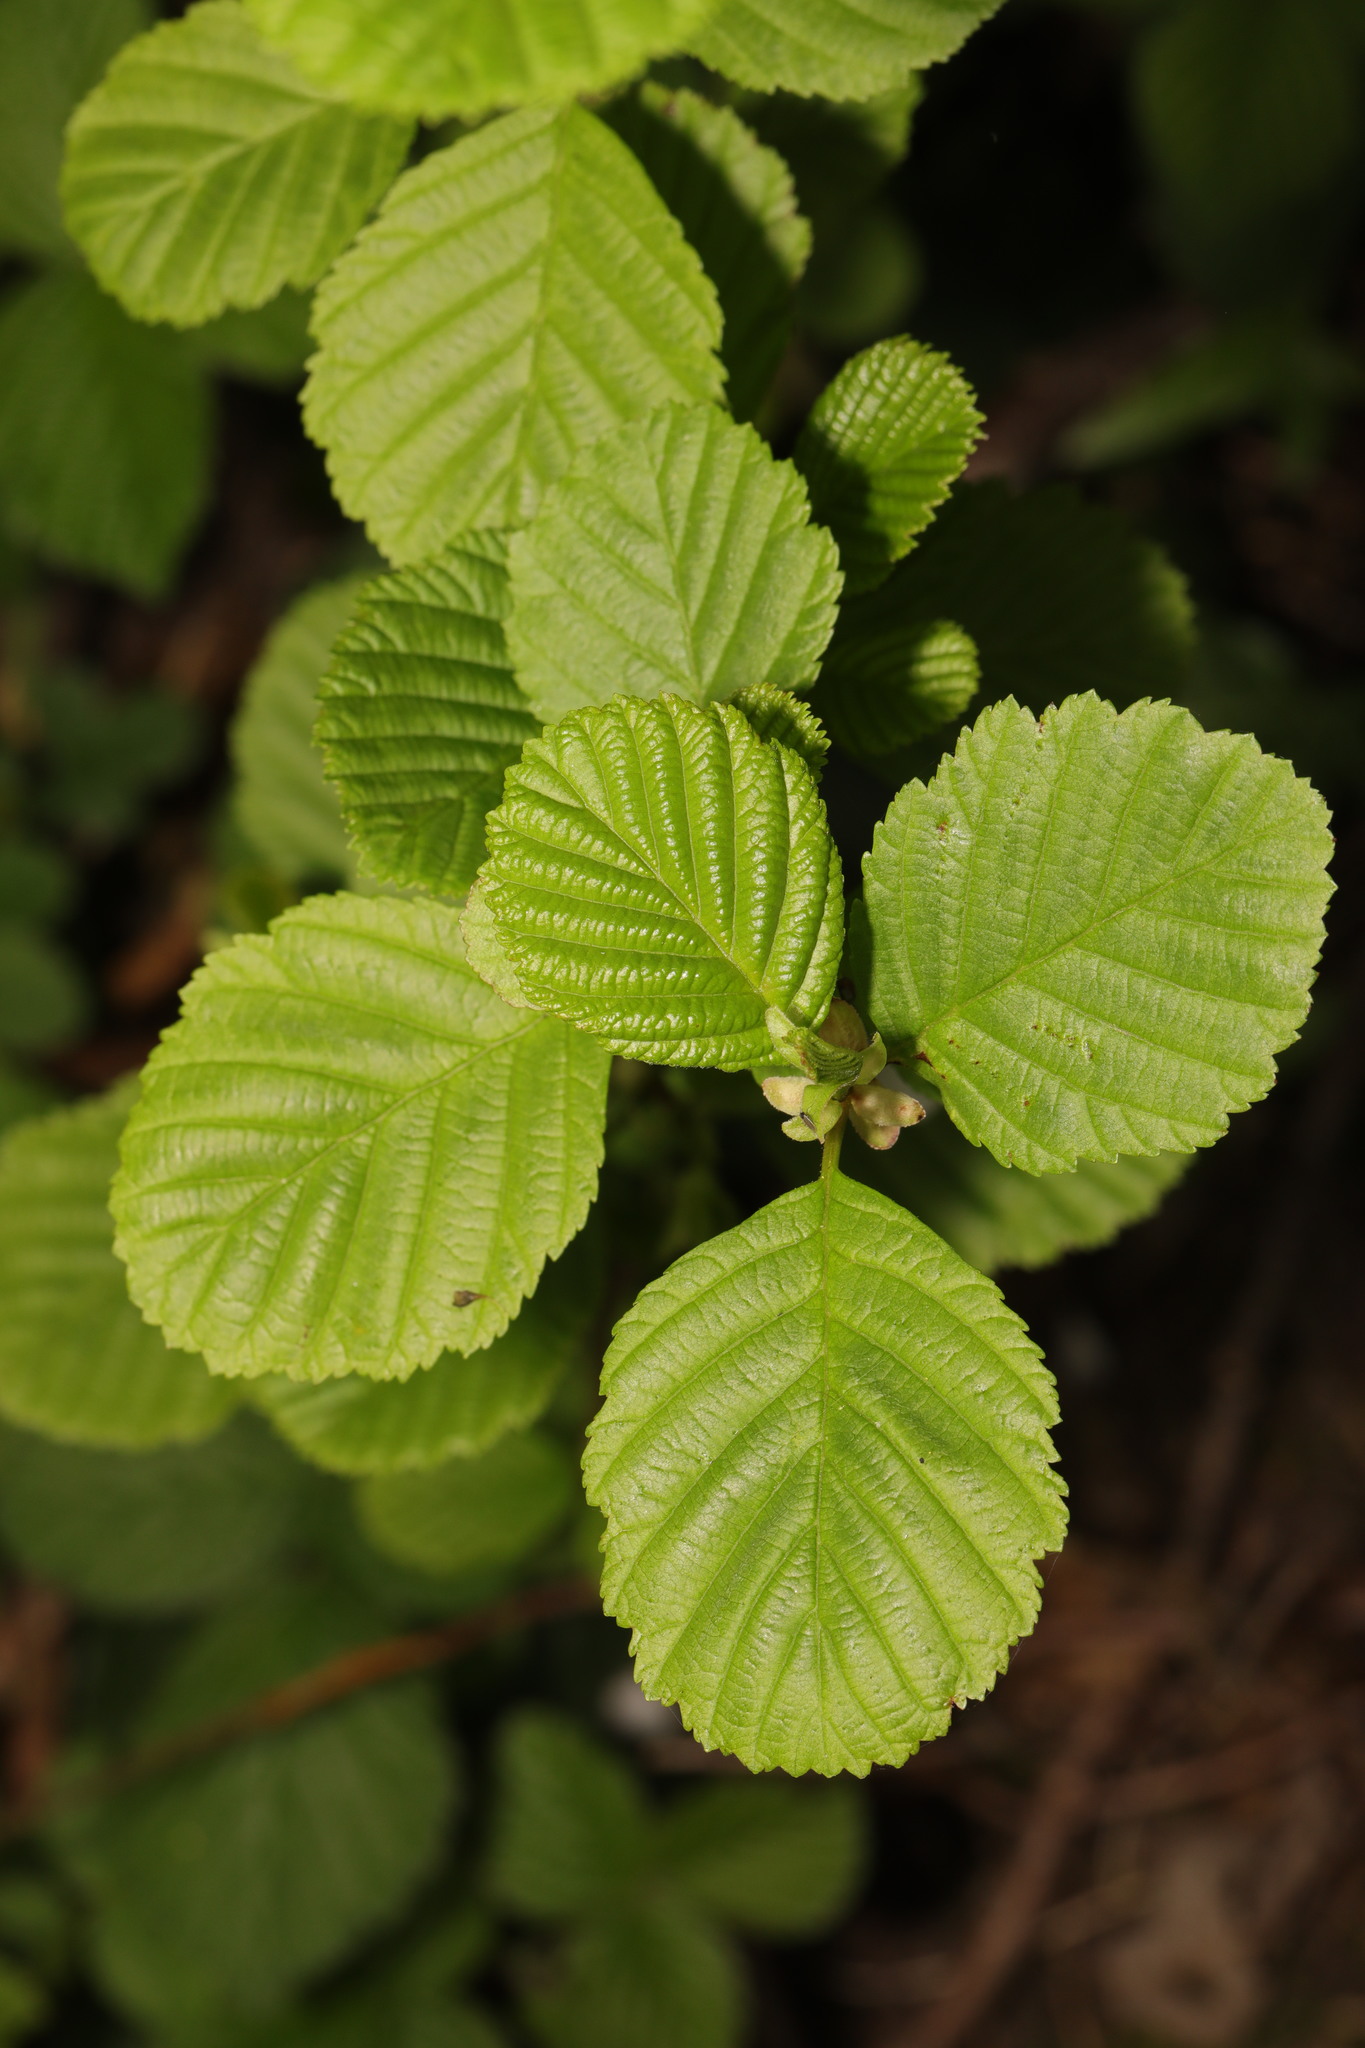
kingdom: Plantae
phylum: Tracheophyta
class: Magnoliopsida
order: Fagales
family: Betulaceae
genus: Alnus
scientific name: Alnus glutinosa
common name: Black alder
